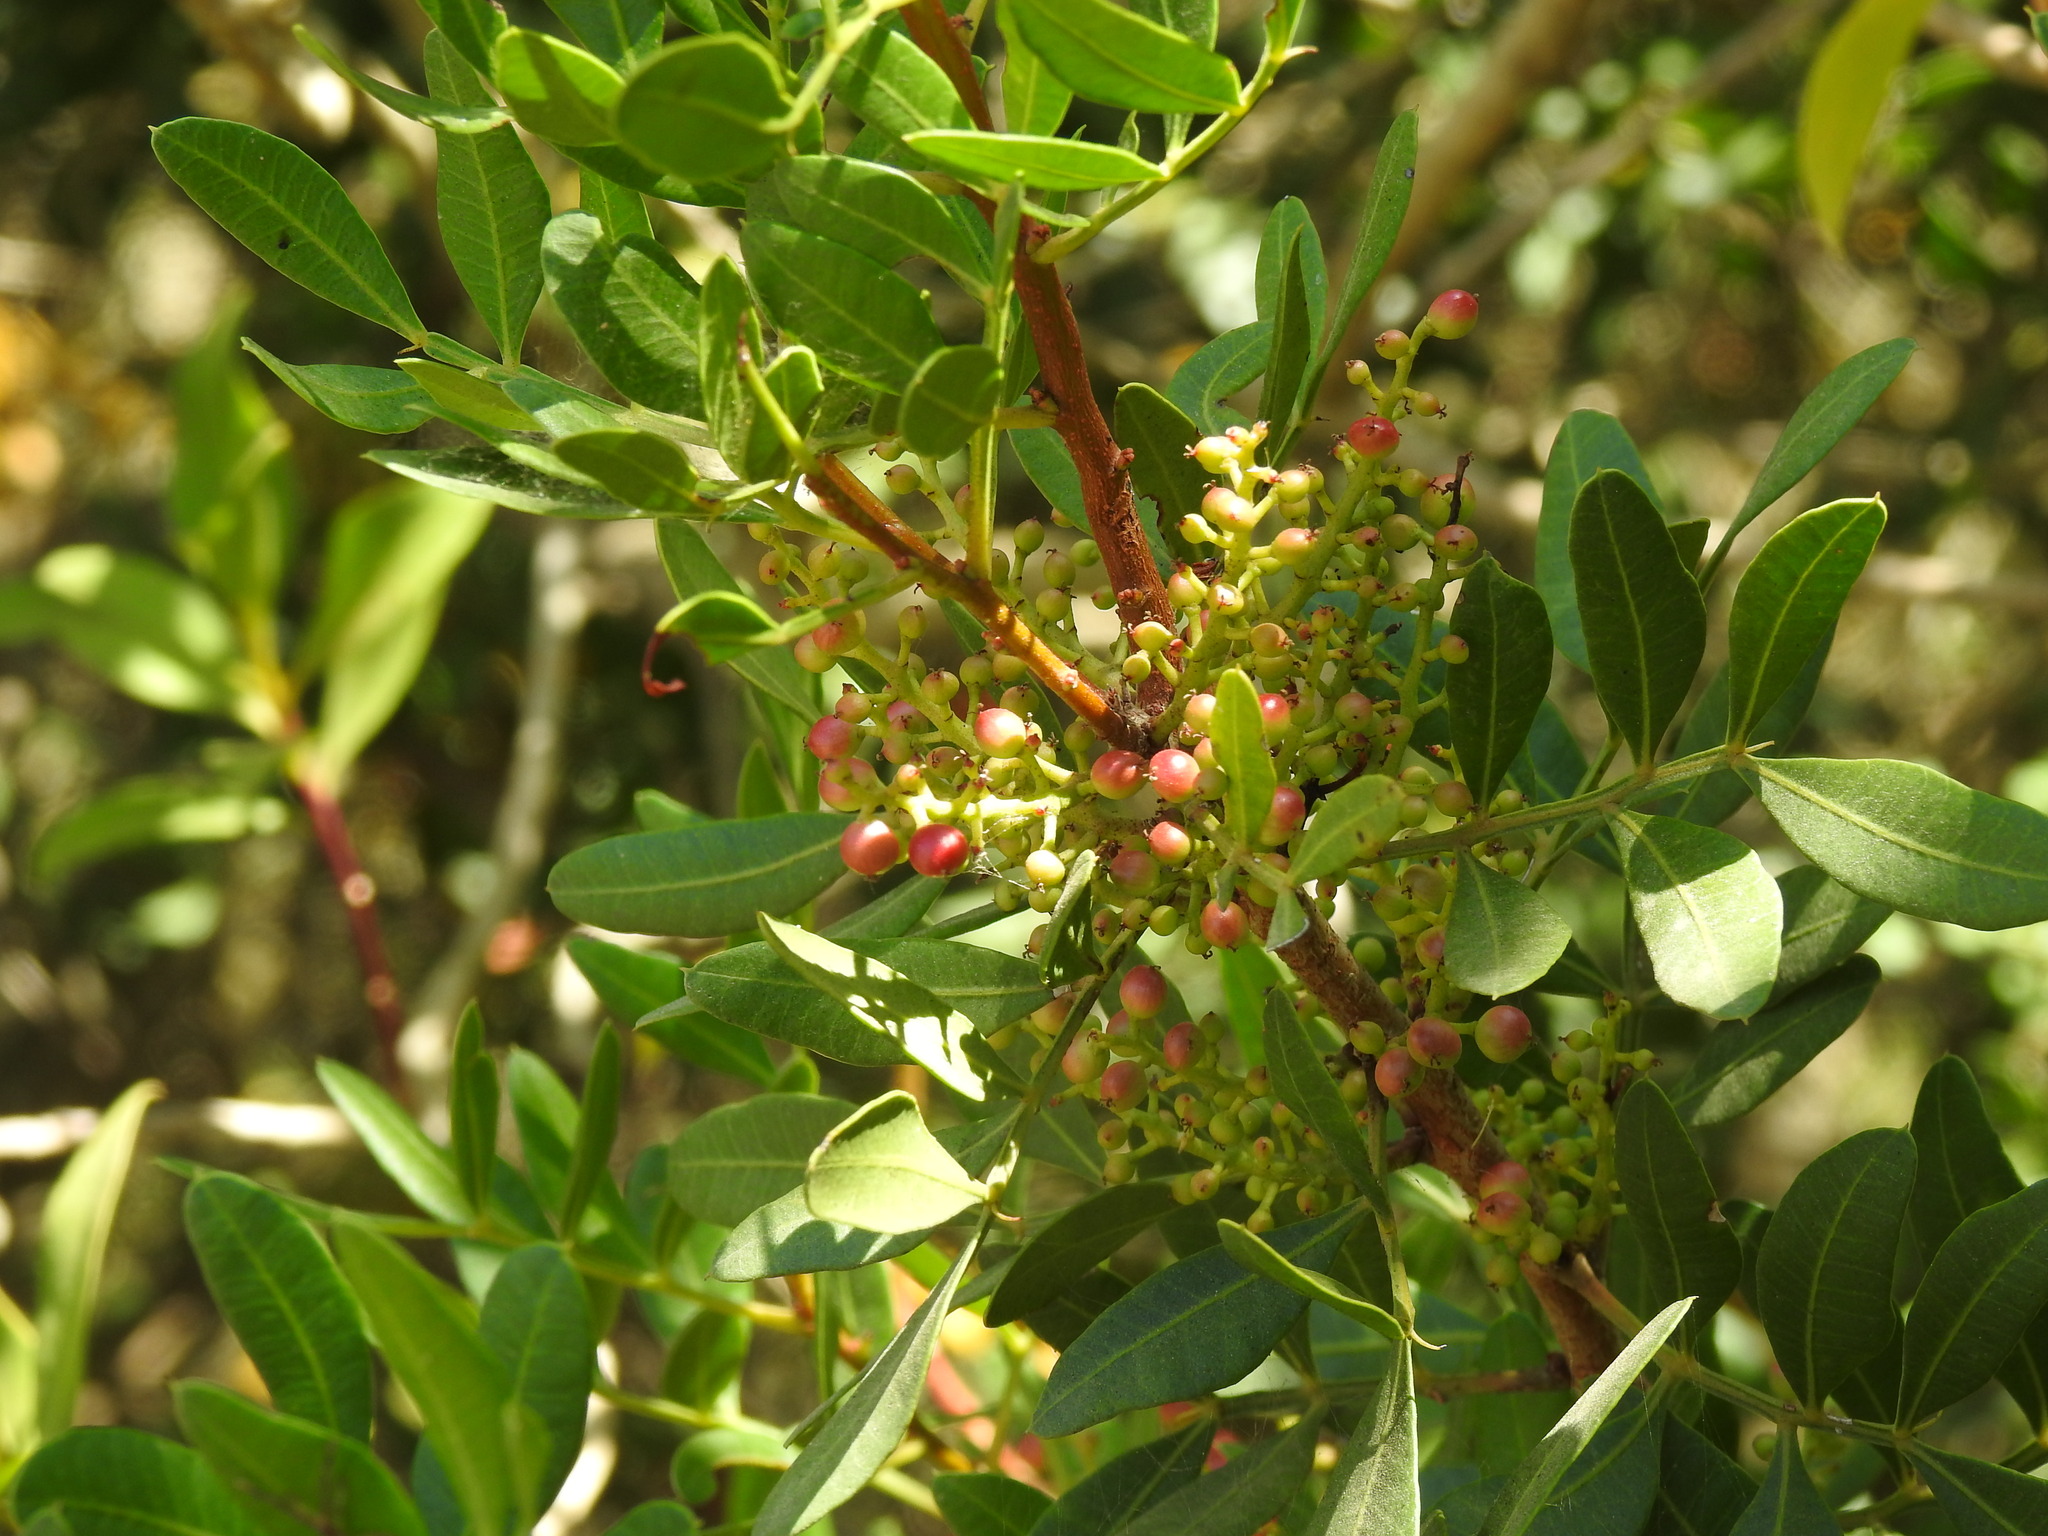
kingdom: Plantae
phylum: Tracheophyta
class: Magnoliopsida
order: Sapindales
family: Anacardiaceae
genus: Pistacia
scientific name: Pistacia lentiscus
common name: Lentisk
